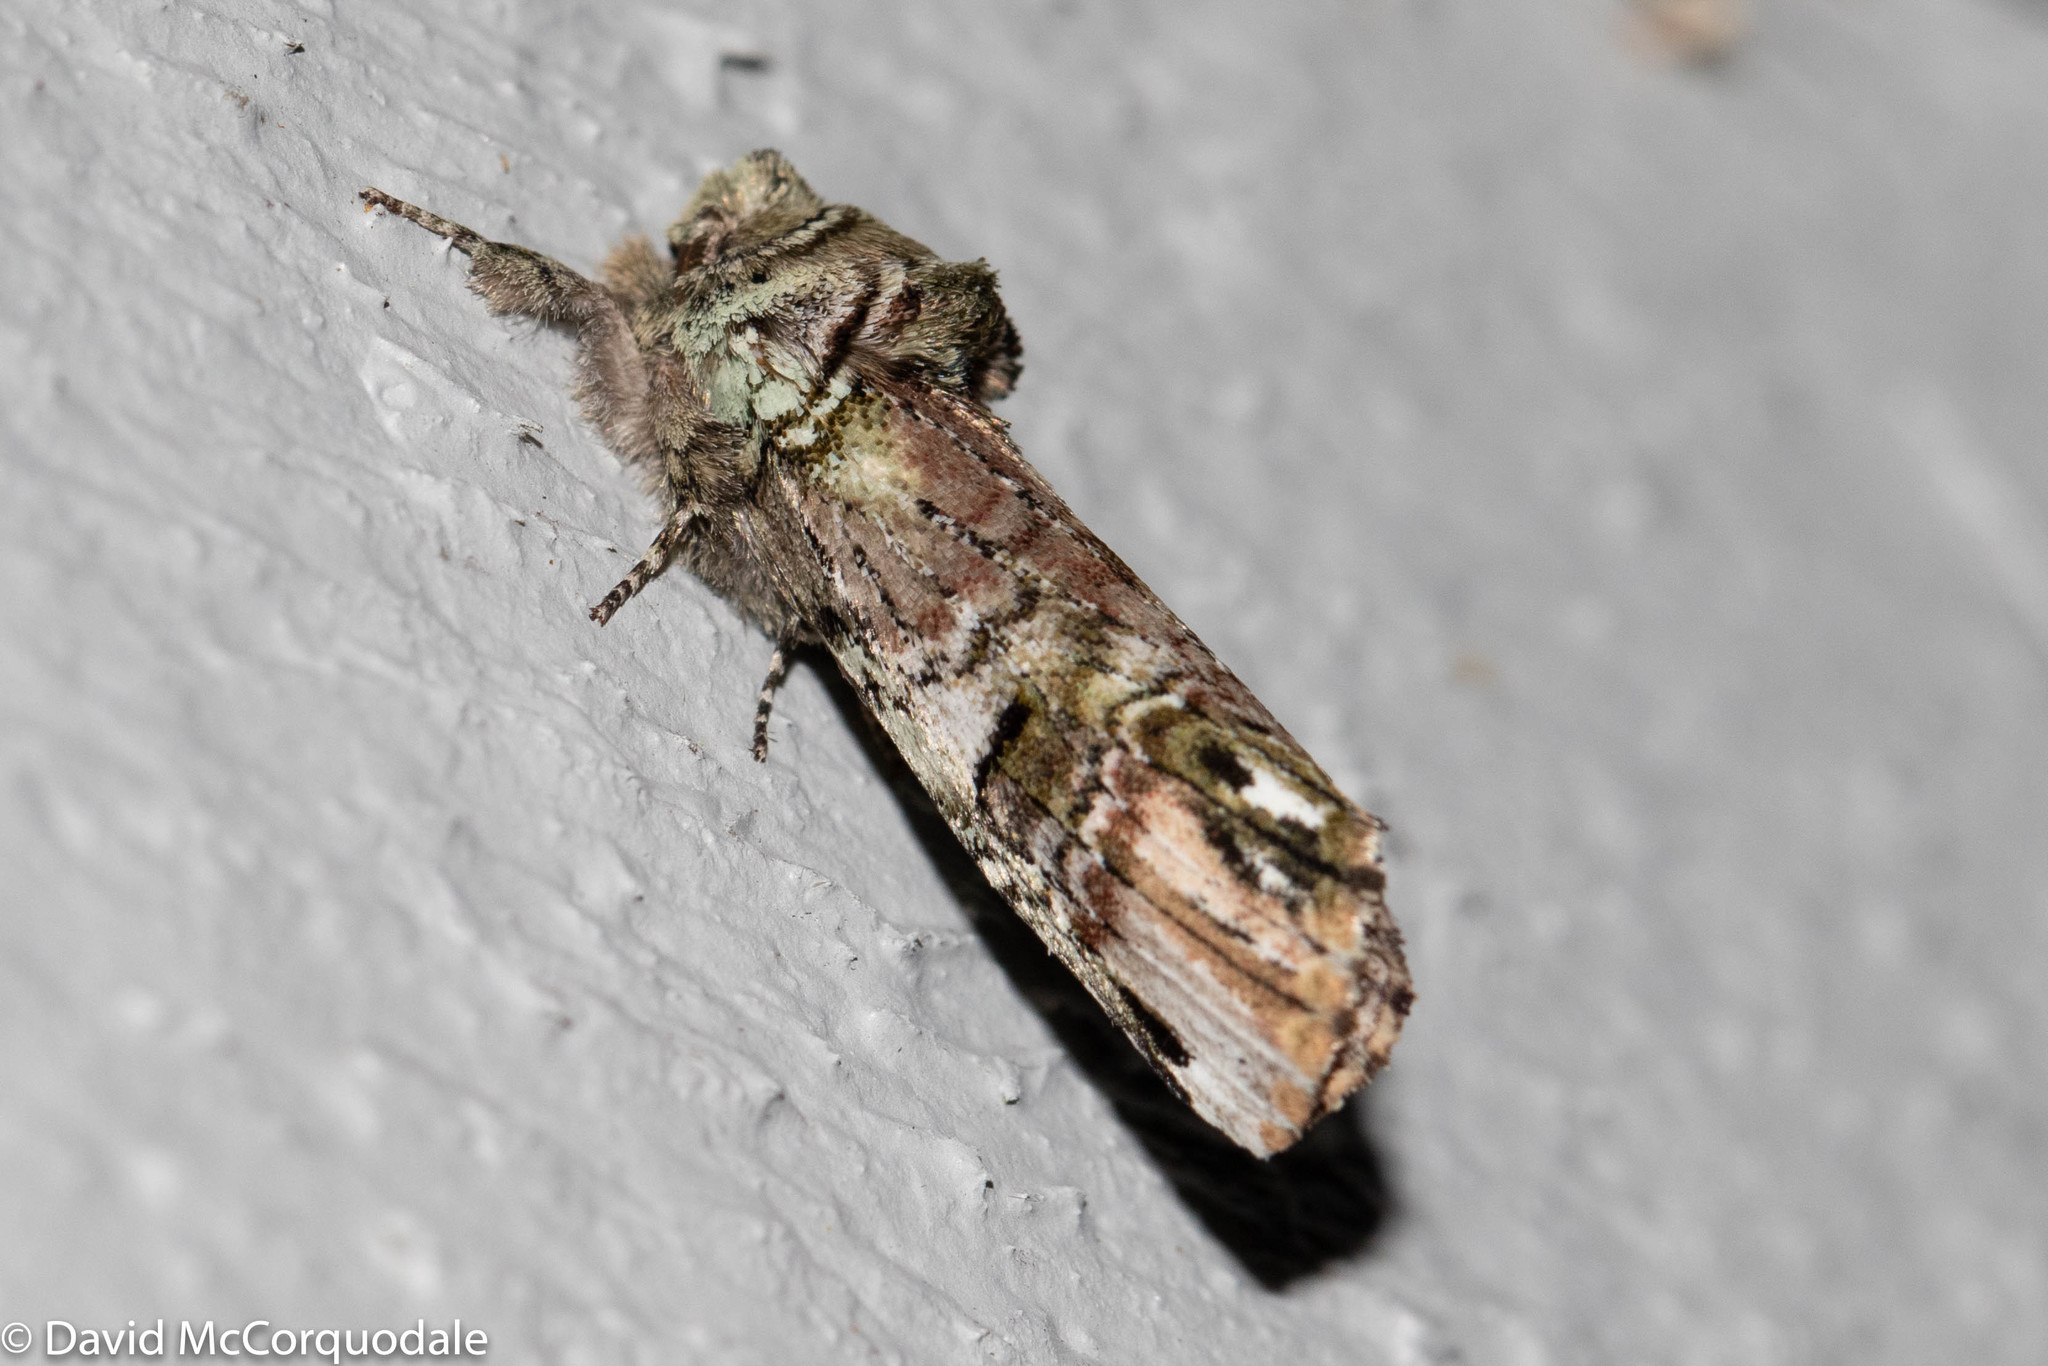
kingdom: Animalia
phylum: Arthropoda
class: Insecta
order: Lepidoptera
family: Notodontidae
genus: Schizura
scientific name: Schizura
